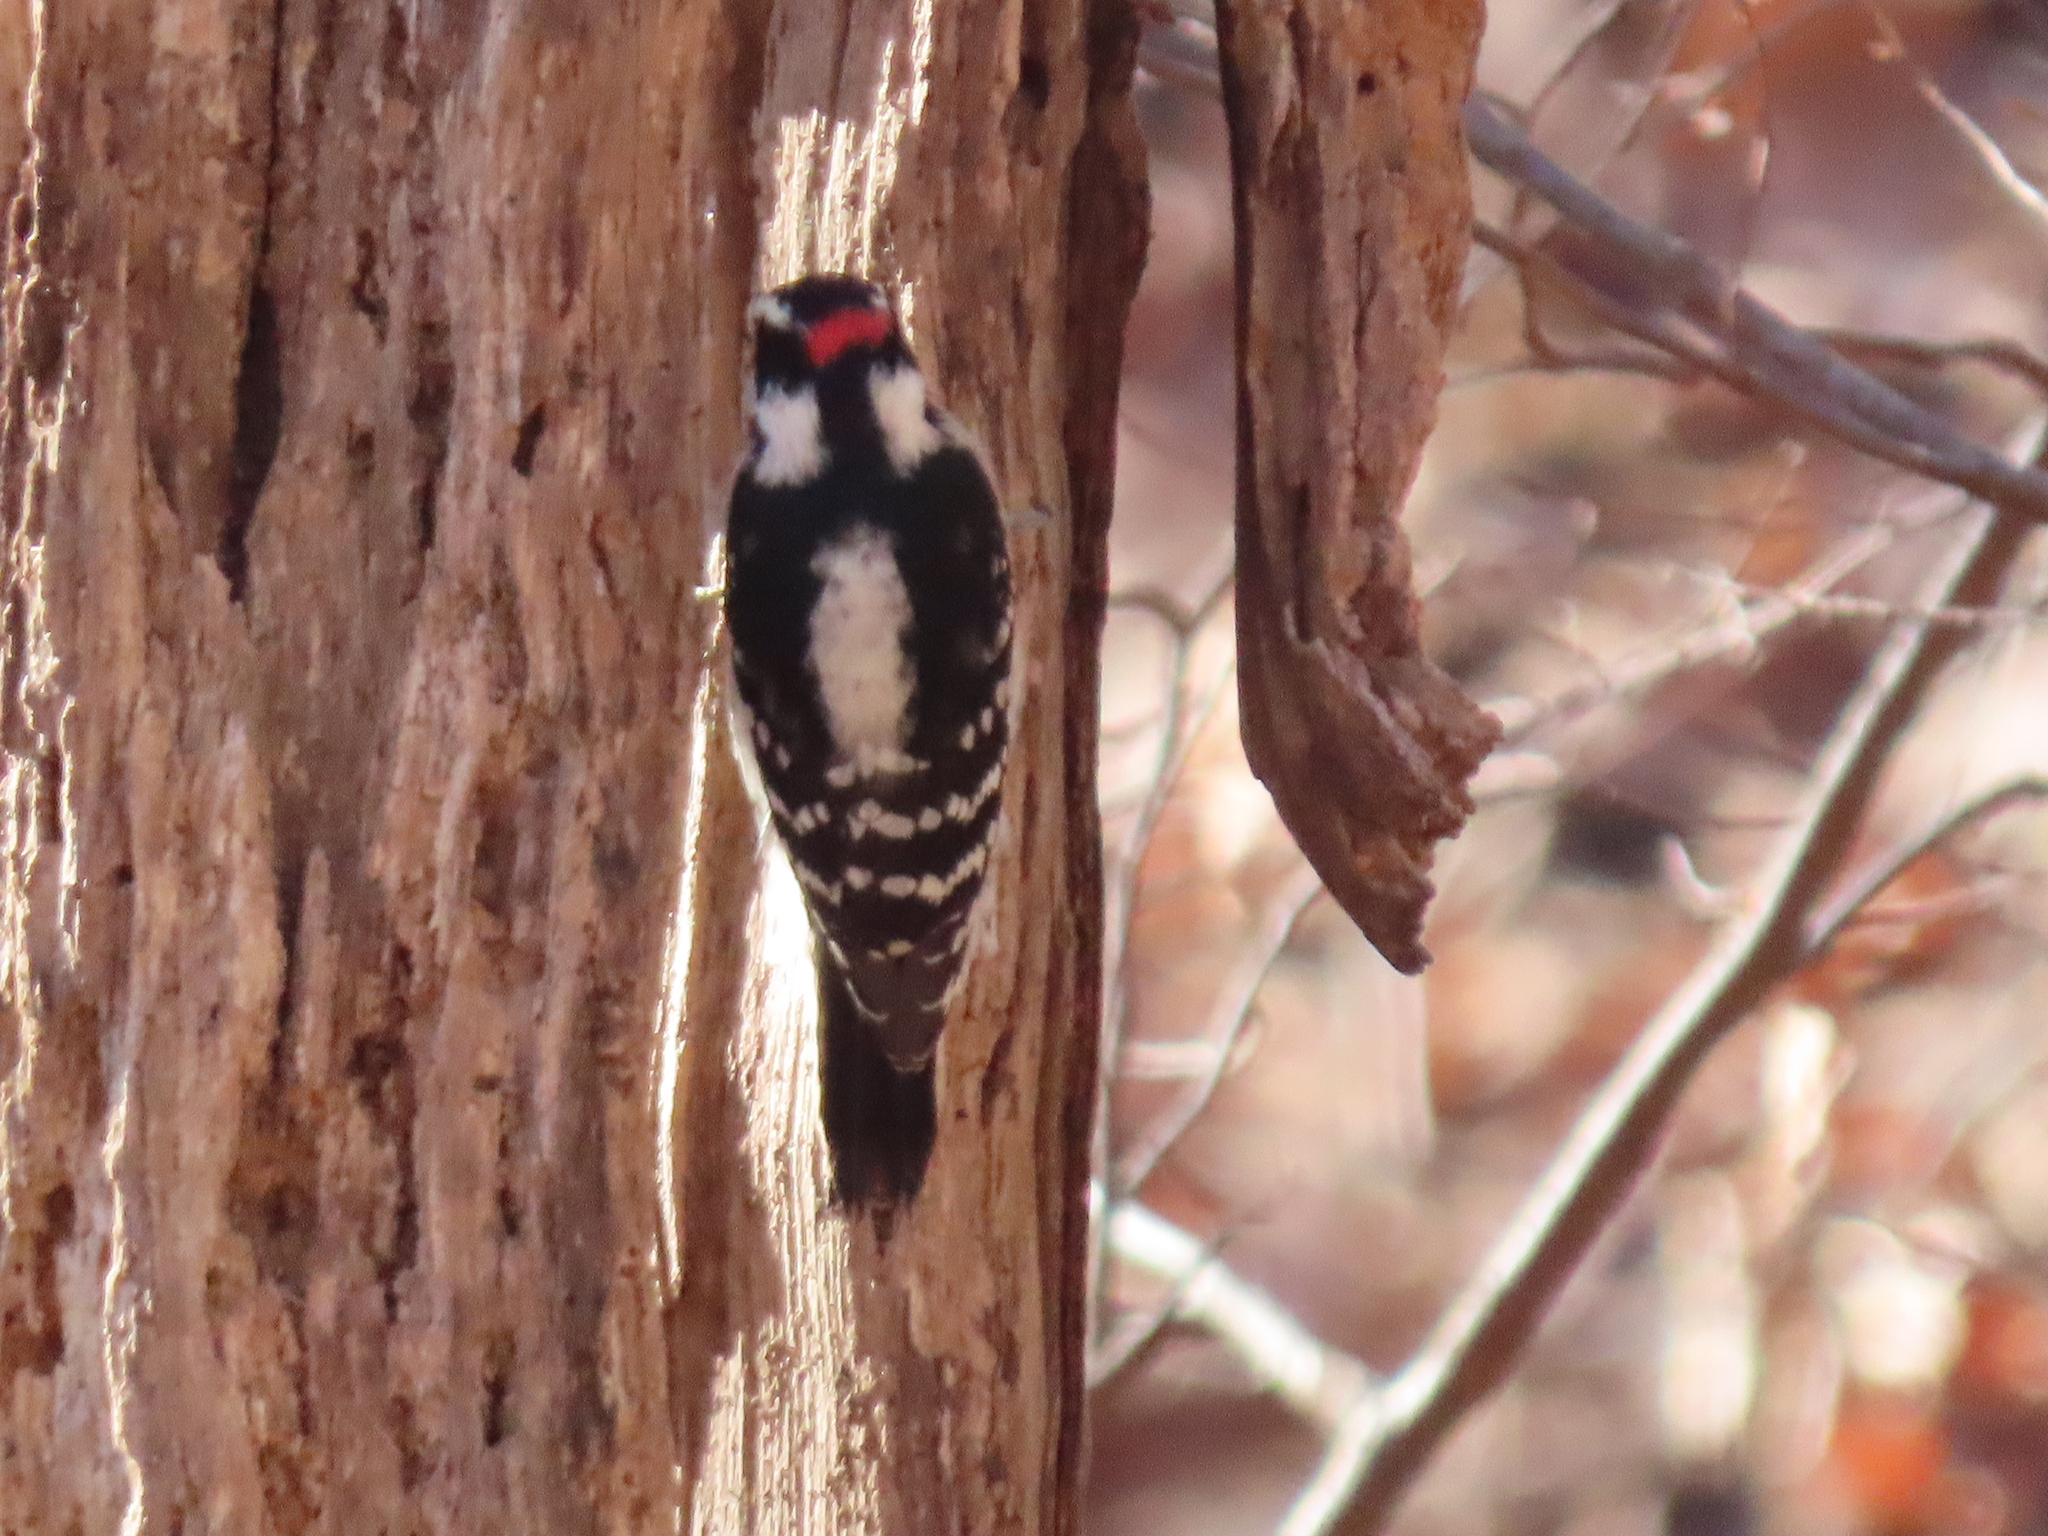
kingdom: Animalia
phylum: Chordata
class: Aves
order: Piciformes
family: Picidae
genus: Dryobates
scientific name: Dryobates pubescens
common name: Downy woodpecker
